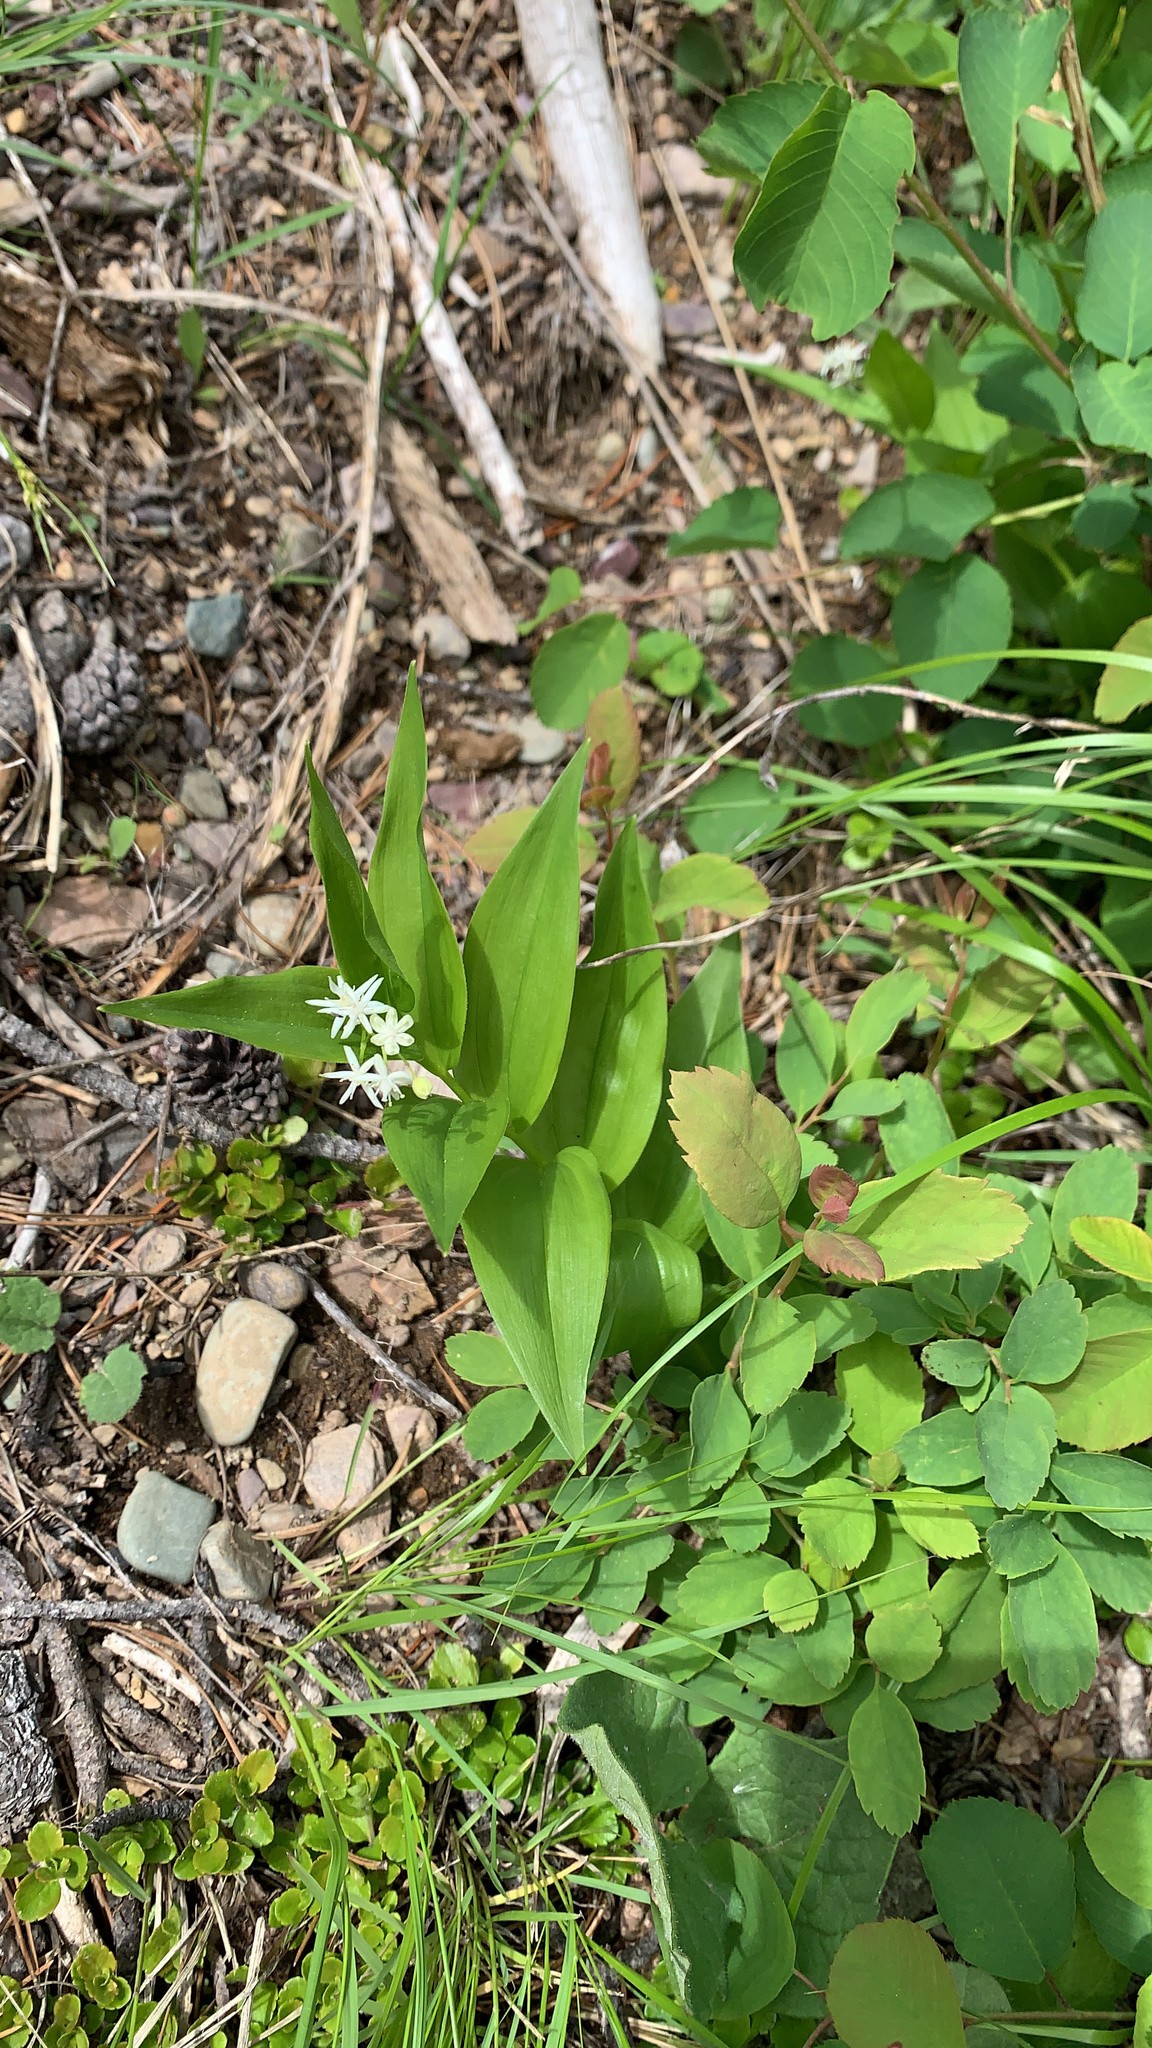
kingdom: Plantae
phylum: Tracheophyta
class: Liliopsida
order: Asparagales
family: Asparagaceae
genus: Maianthemum
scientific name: Maianthemum stellatum
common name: Little false solomon's seal
